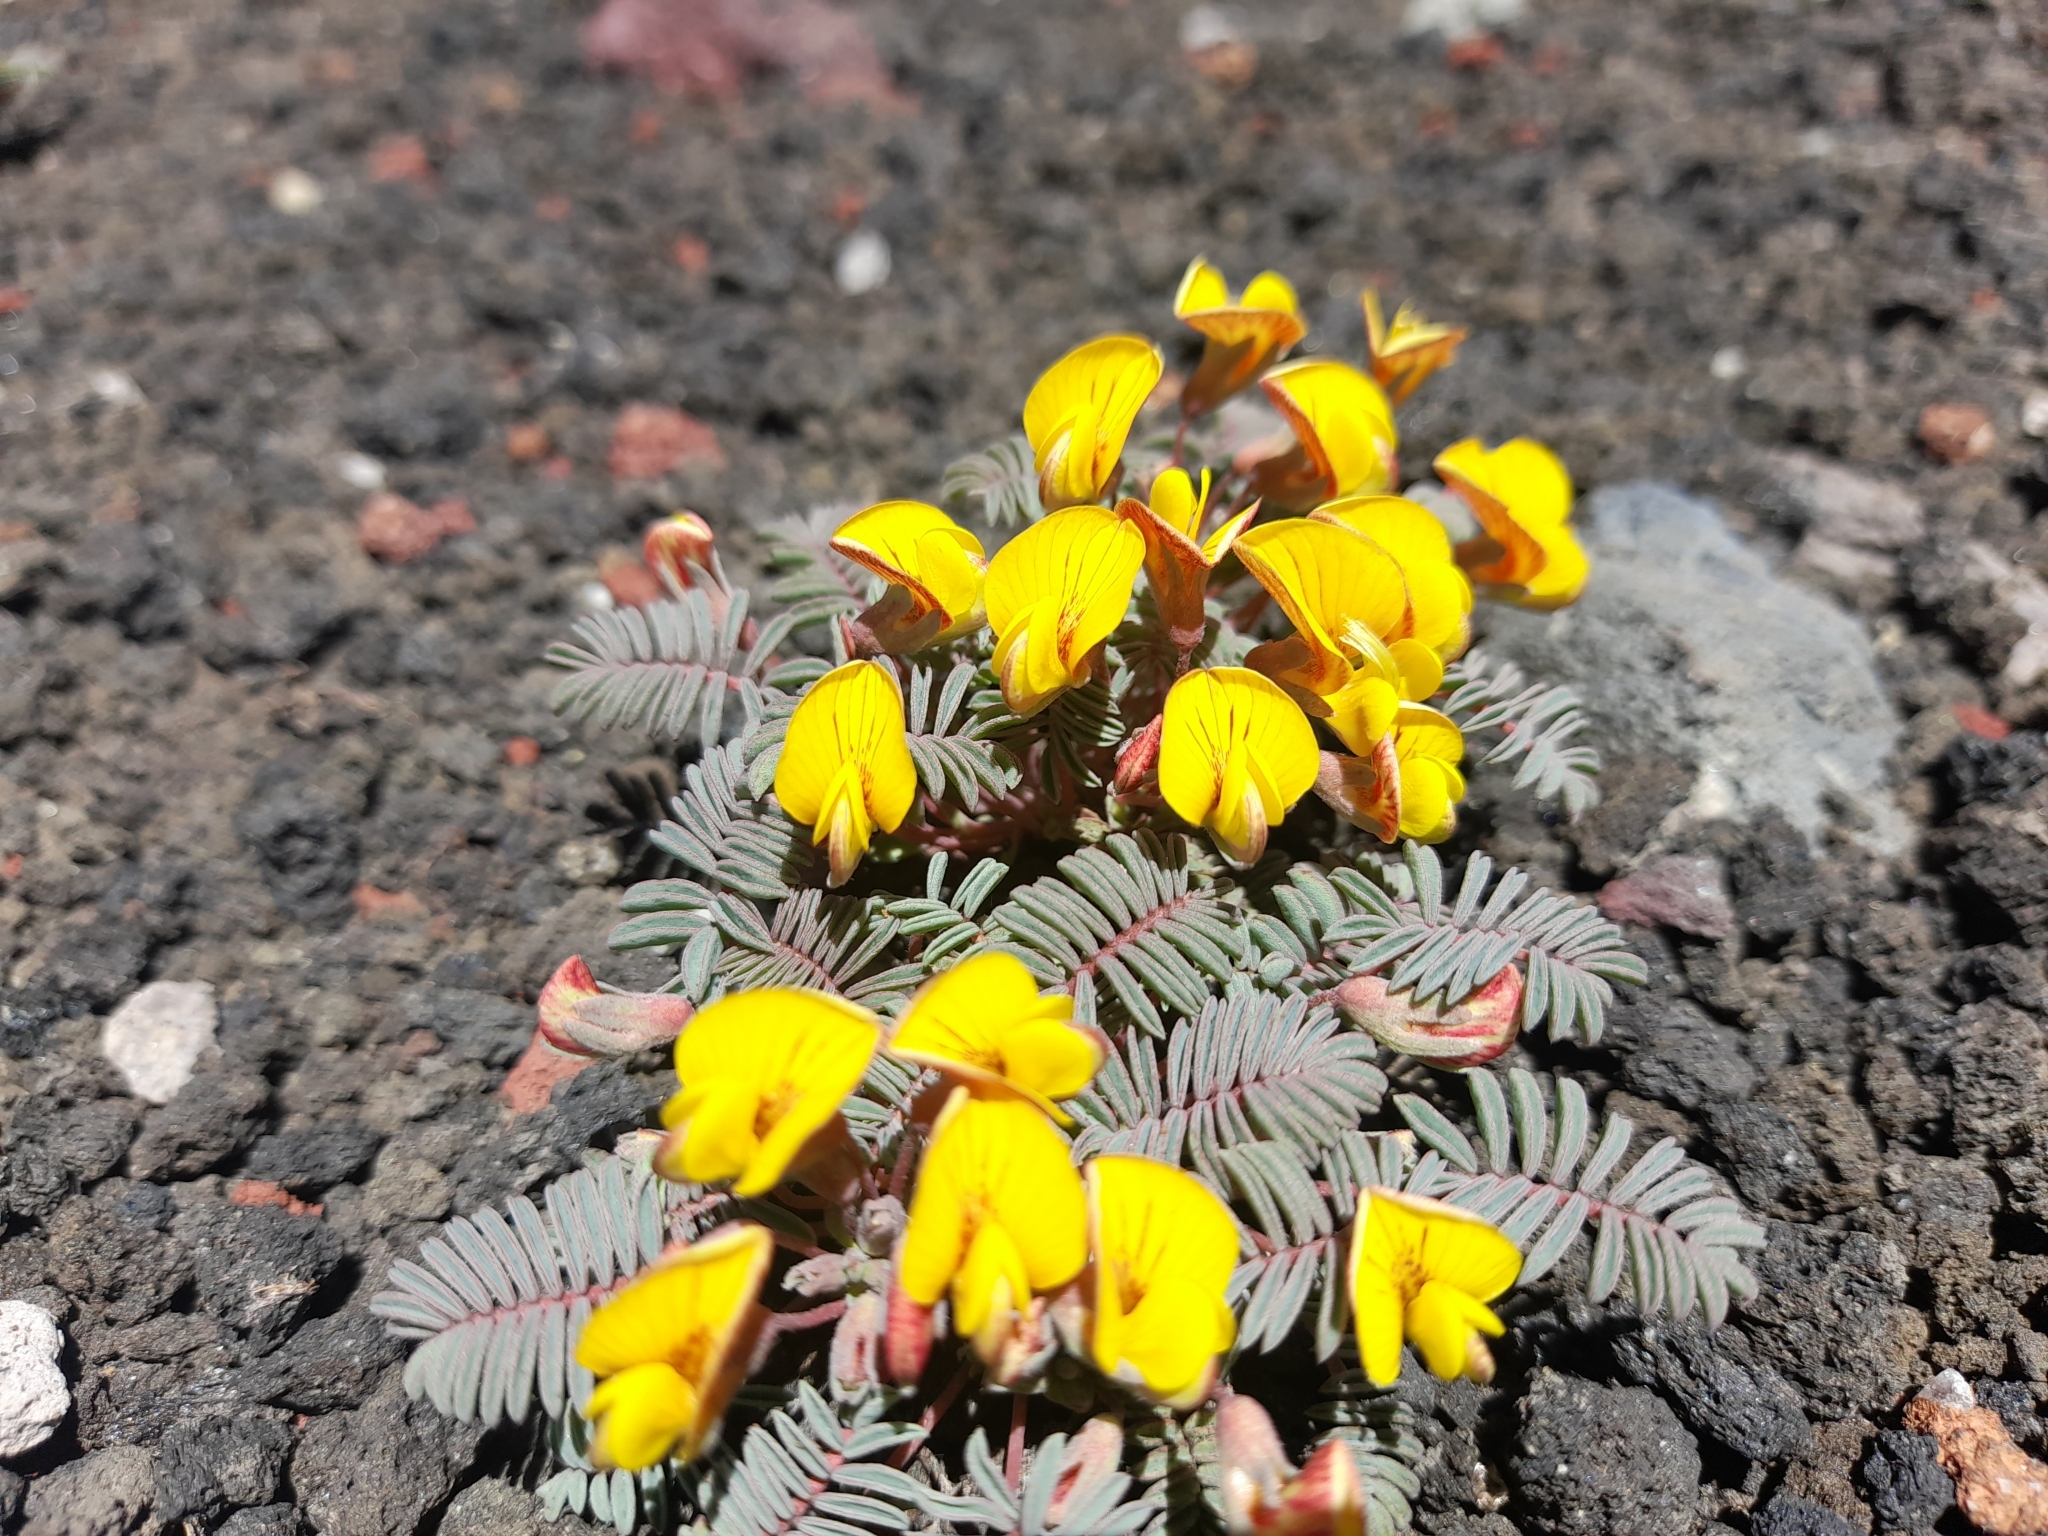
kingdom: Plantae
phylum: Tracheophyta
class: Magnoliopsida
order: Fabales
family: Fabaceae
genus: Adesmia
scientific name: Adesmia longipes
